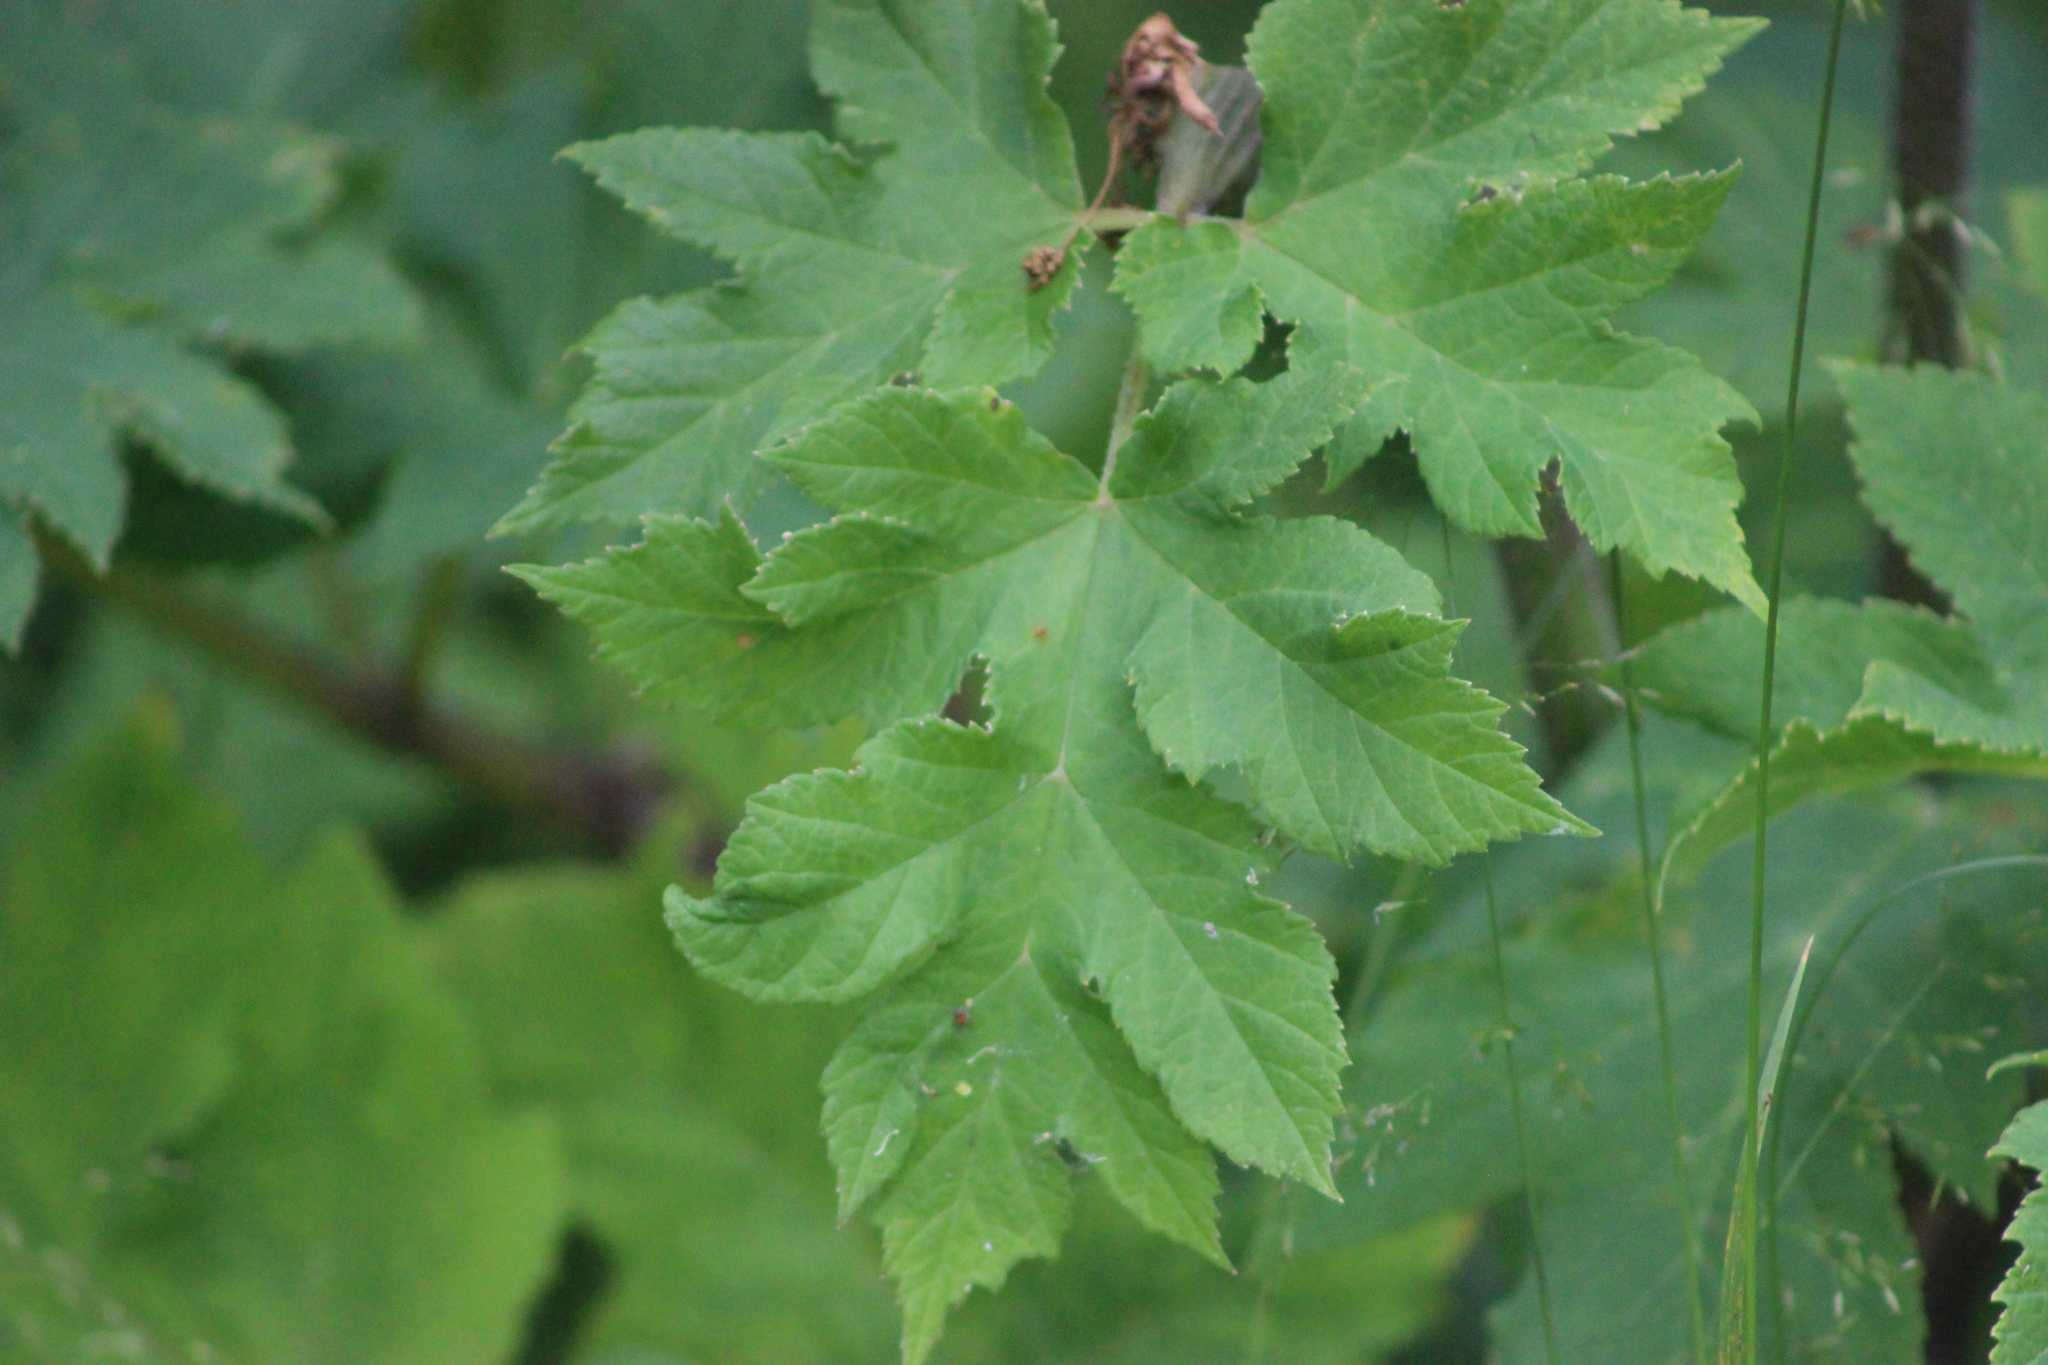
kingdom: Plantae
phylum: Tracheophyta
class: Magnoliopsida
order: Apiales
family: Apiaceae
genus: Heracleum
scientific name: Heracleum sphondylium
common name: Hogweed
